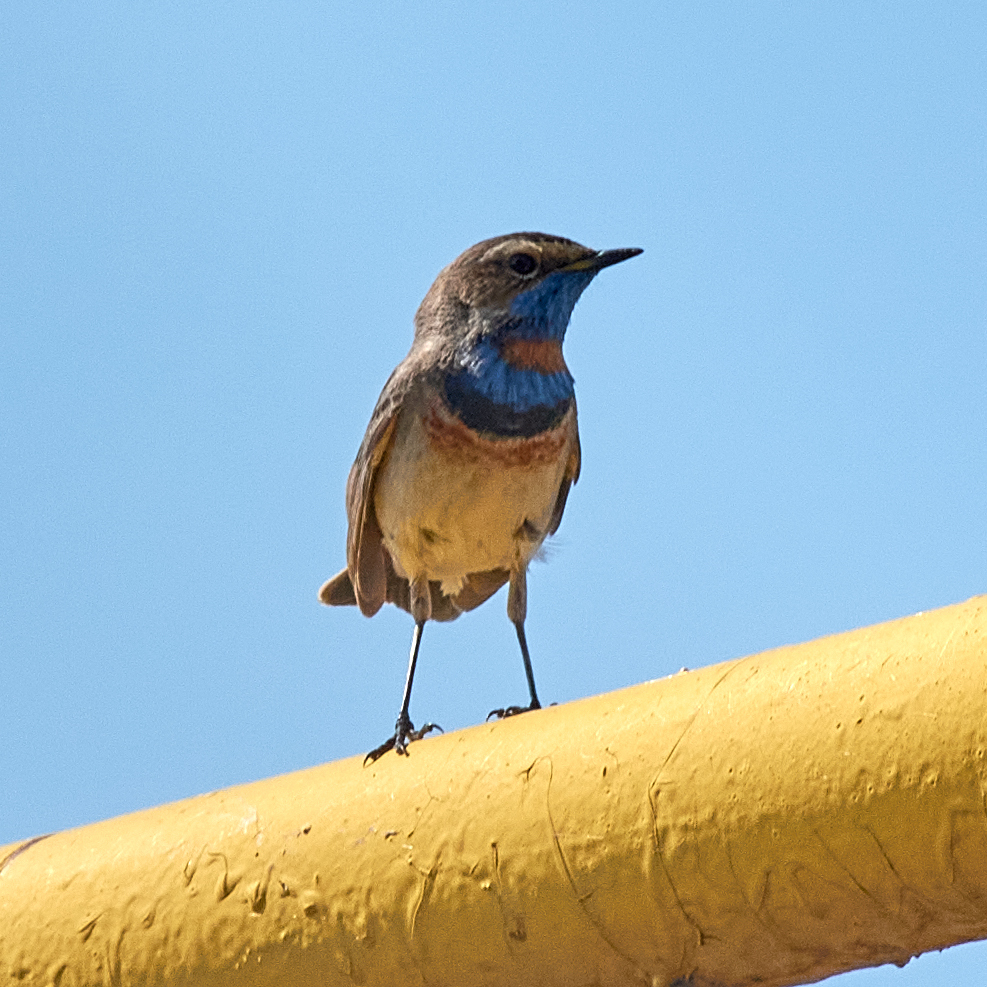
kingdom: Animalia
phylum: Chordata
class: Aves
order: Passeriformes
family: Muscicapidae
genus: Luscinia
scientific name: Luscinia svecica
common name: Bluethroat
